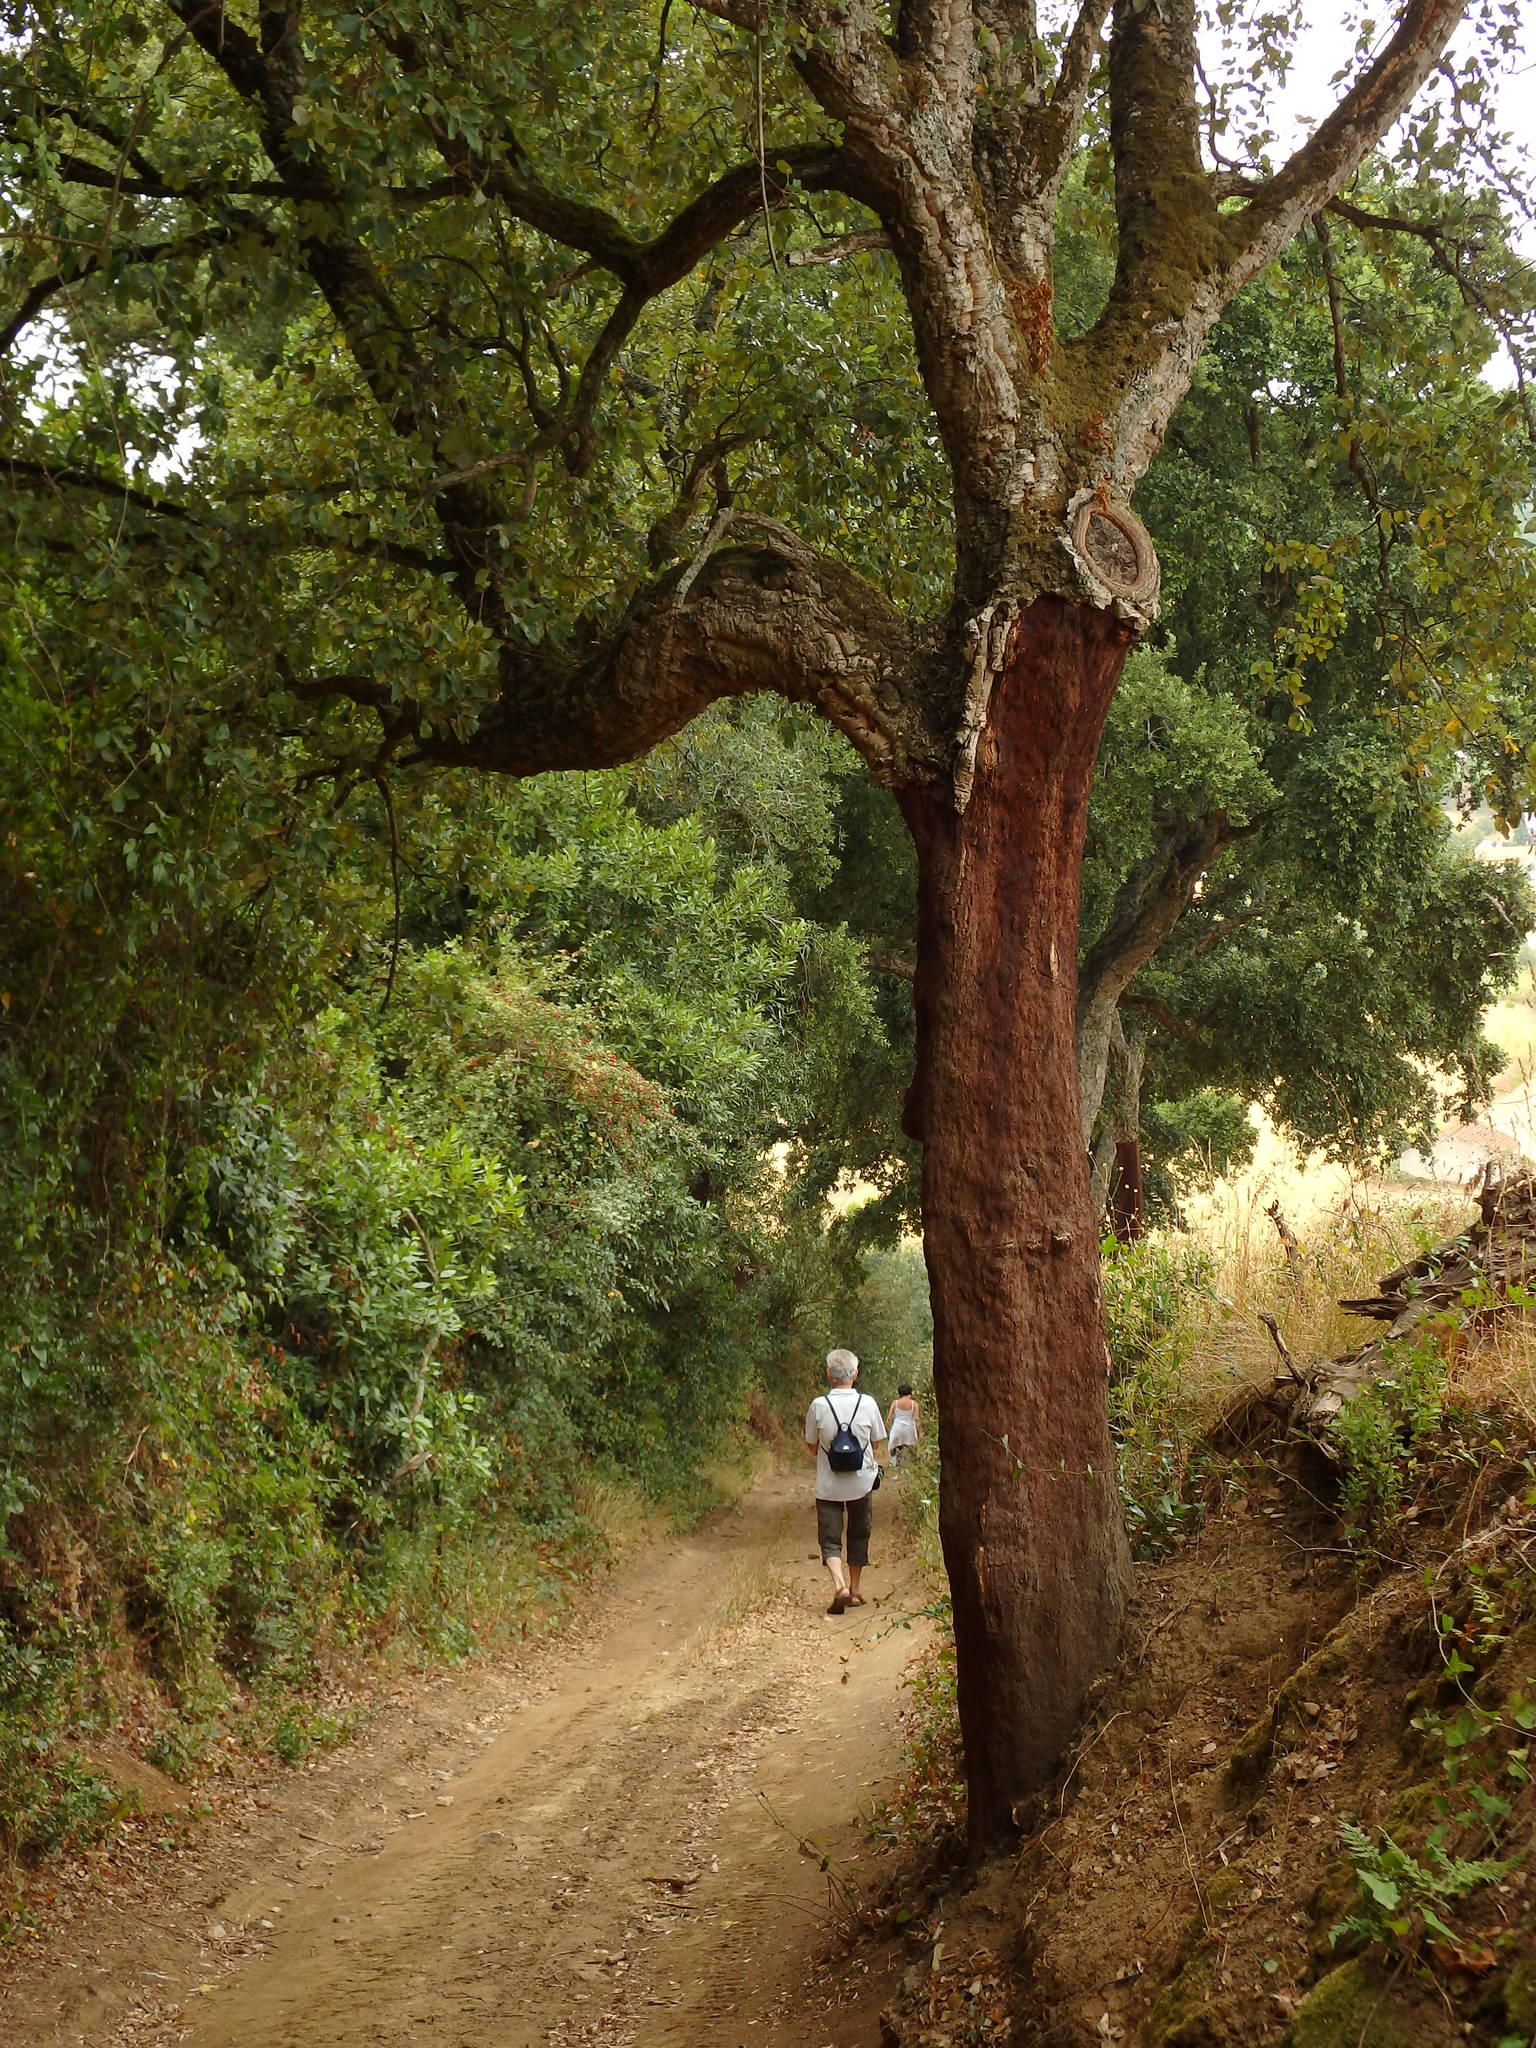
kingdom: Plantae
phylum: Tracheophyta
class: Magnoliopsida
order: Fagales
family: Fagaceae
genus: Quercus
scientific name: Quercus suber
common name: Cork oak
